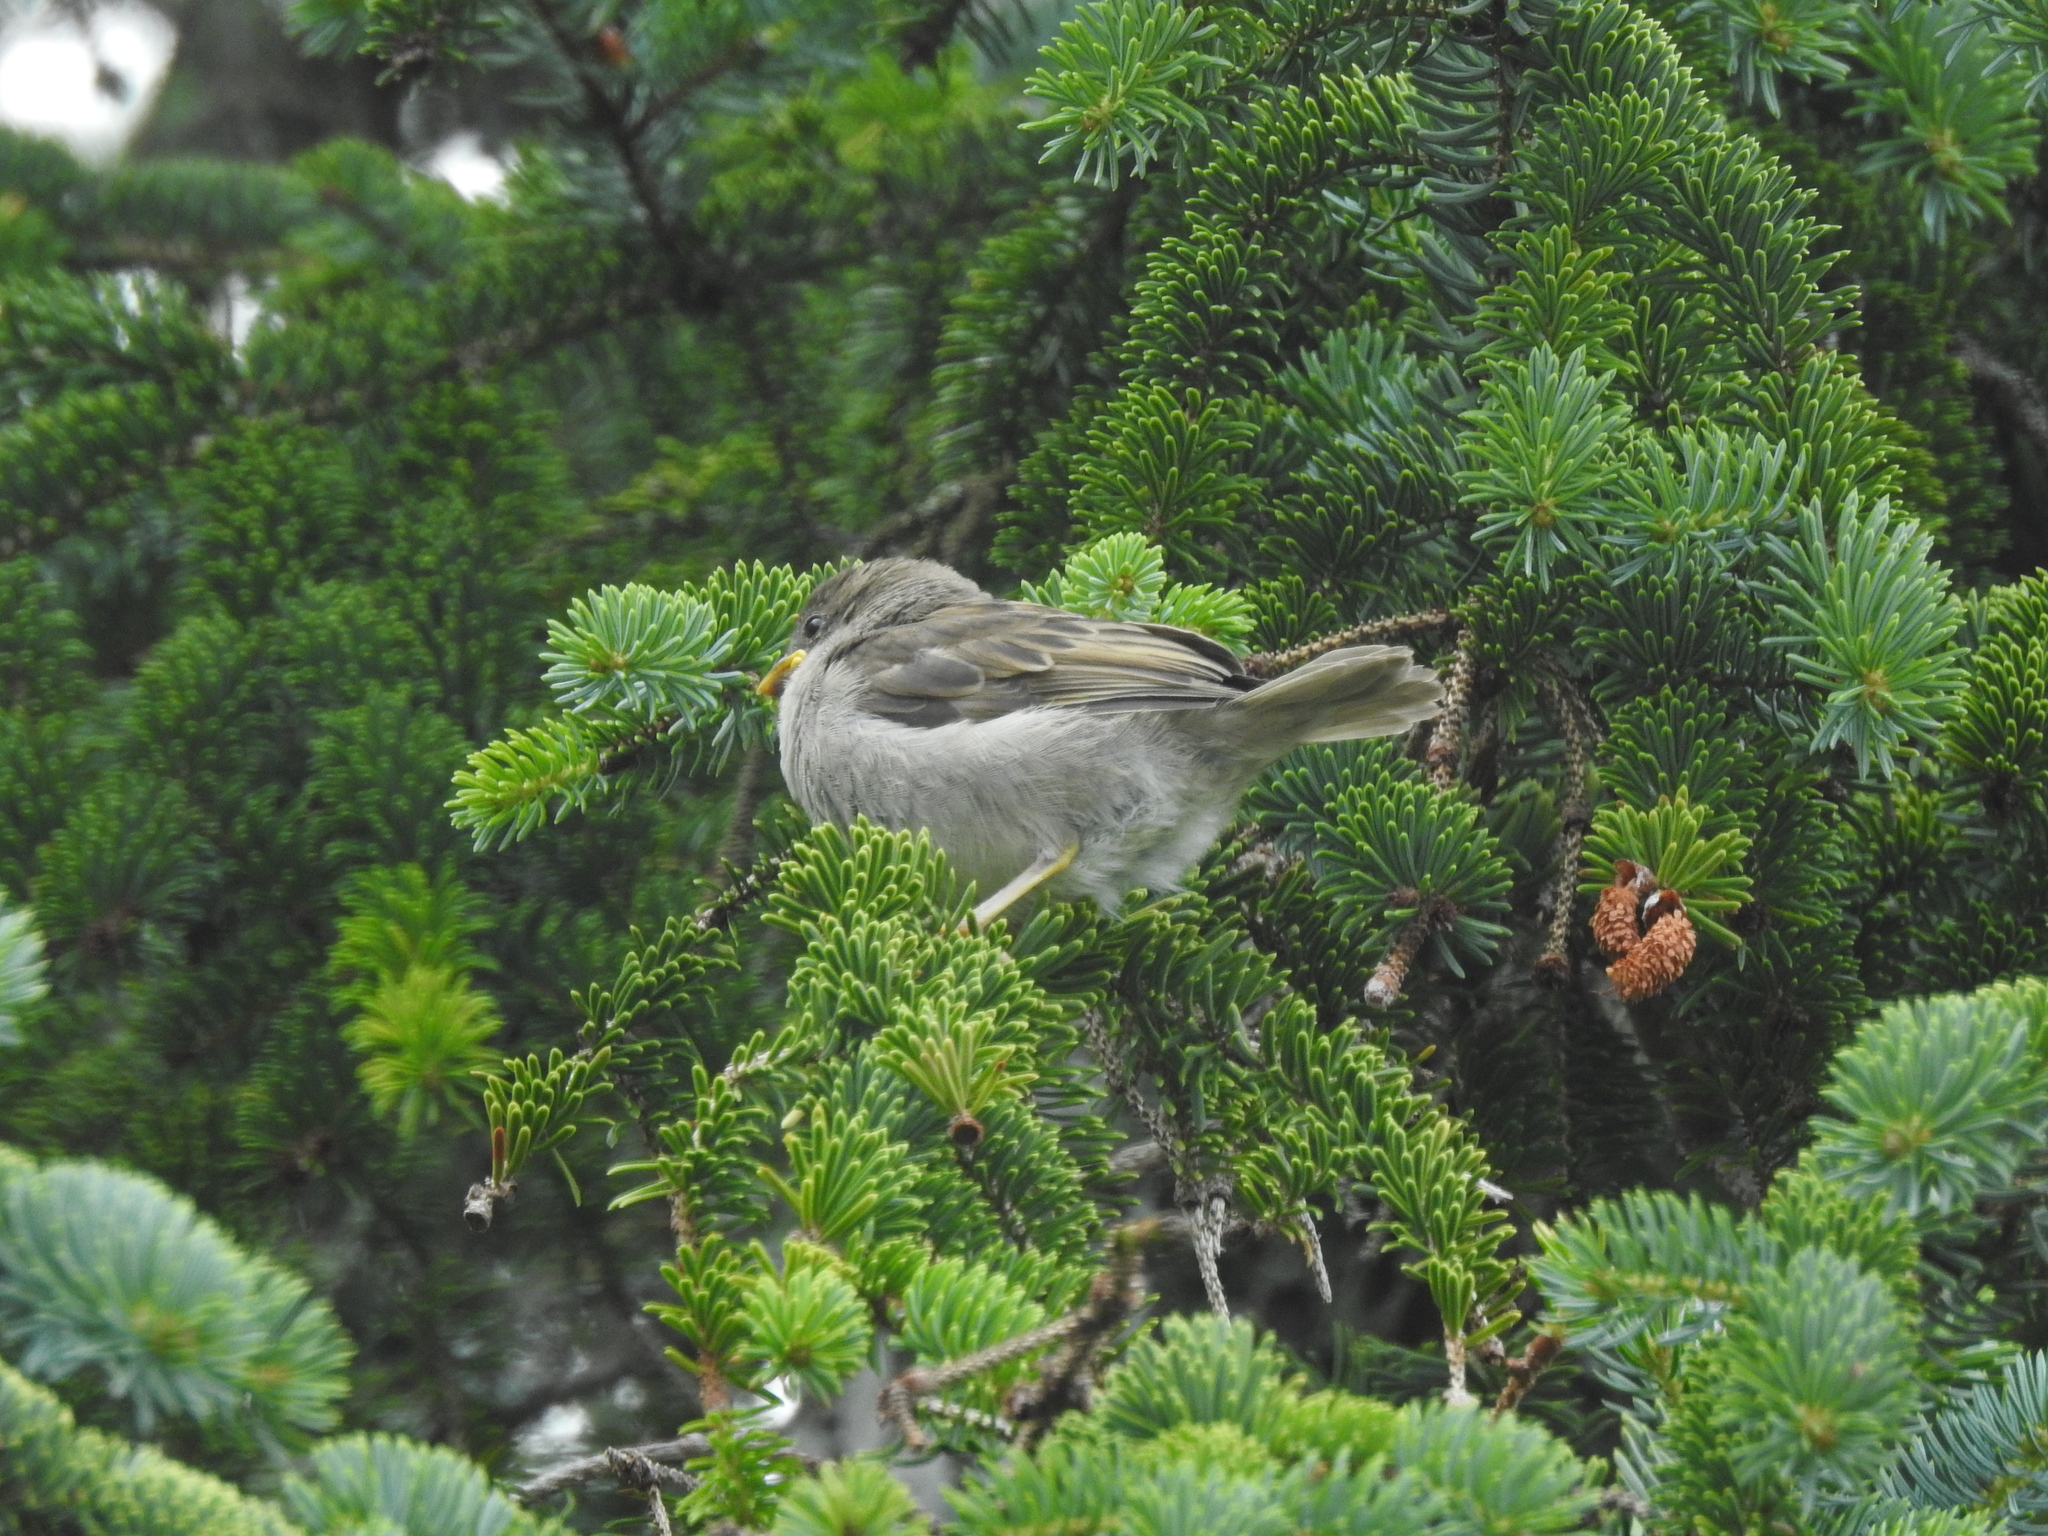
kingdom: Animalia
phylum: Chordata
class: Aves
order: Passeriformes
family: Passeridae
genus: Passer
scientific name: Passer domesticus
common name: House sparrow
